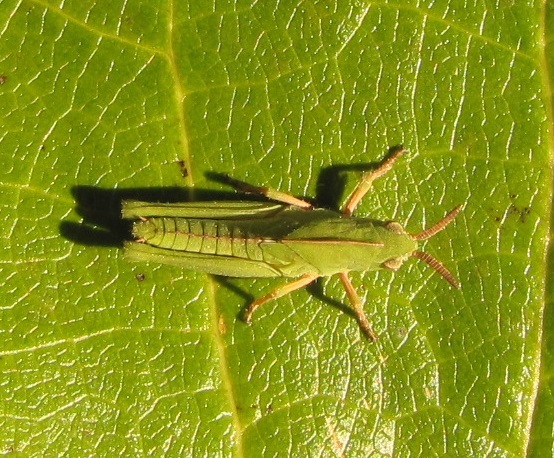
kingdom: Animalia
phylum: Arthropoda
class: Insecta
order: Orthoptera
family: Acrididae
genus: Chortophaga
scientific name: Chortophaga viridifasciata
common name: Green-striped grasshopper
